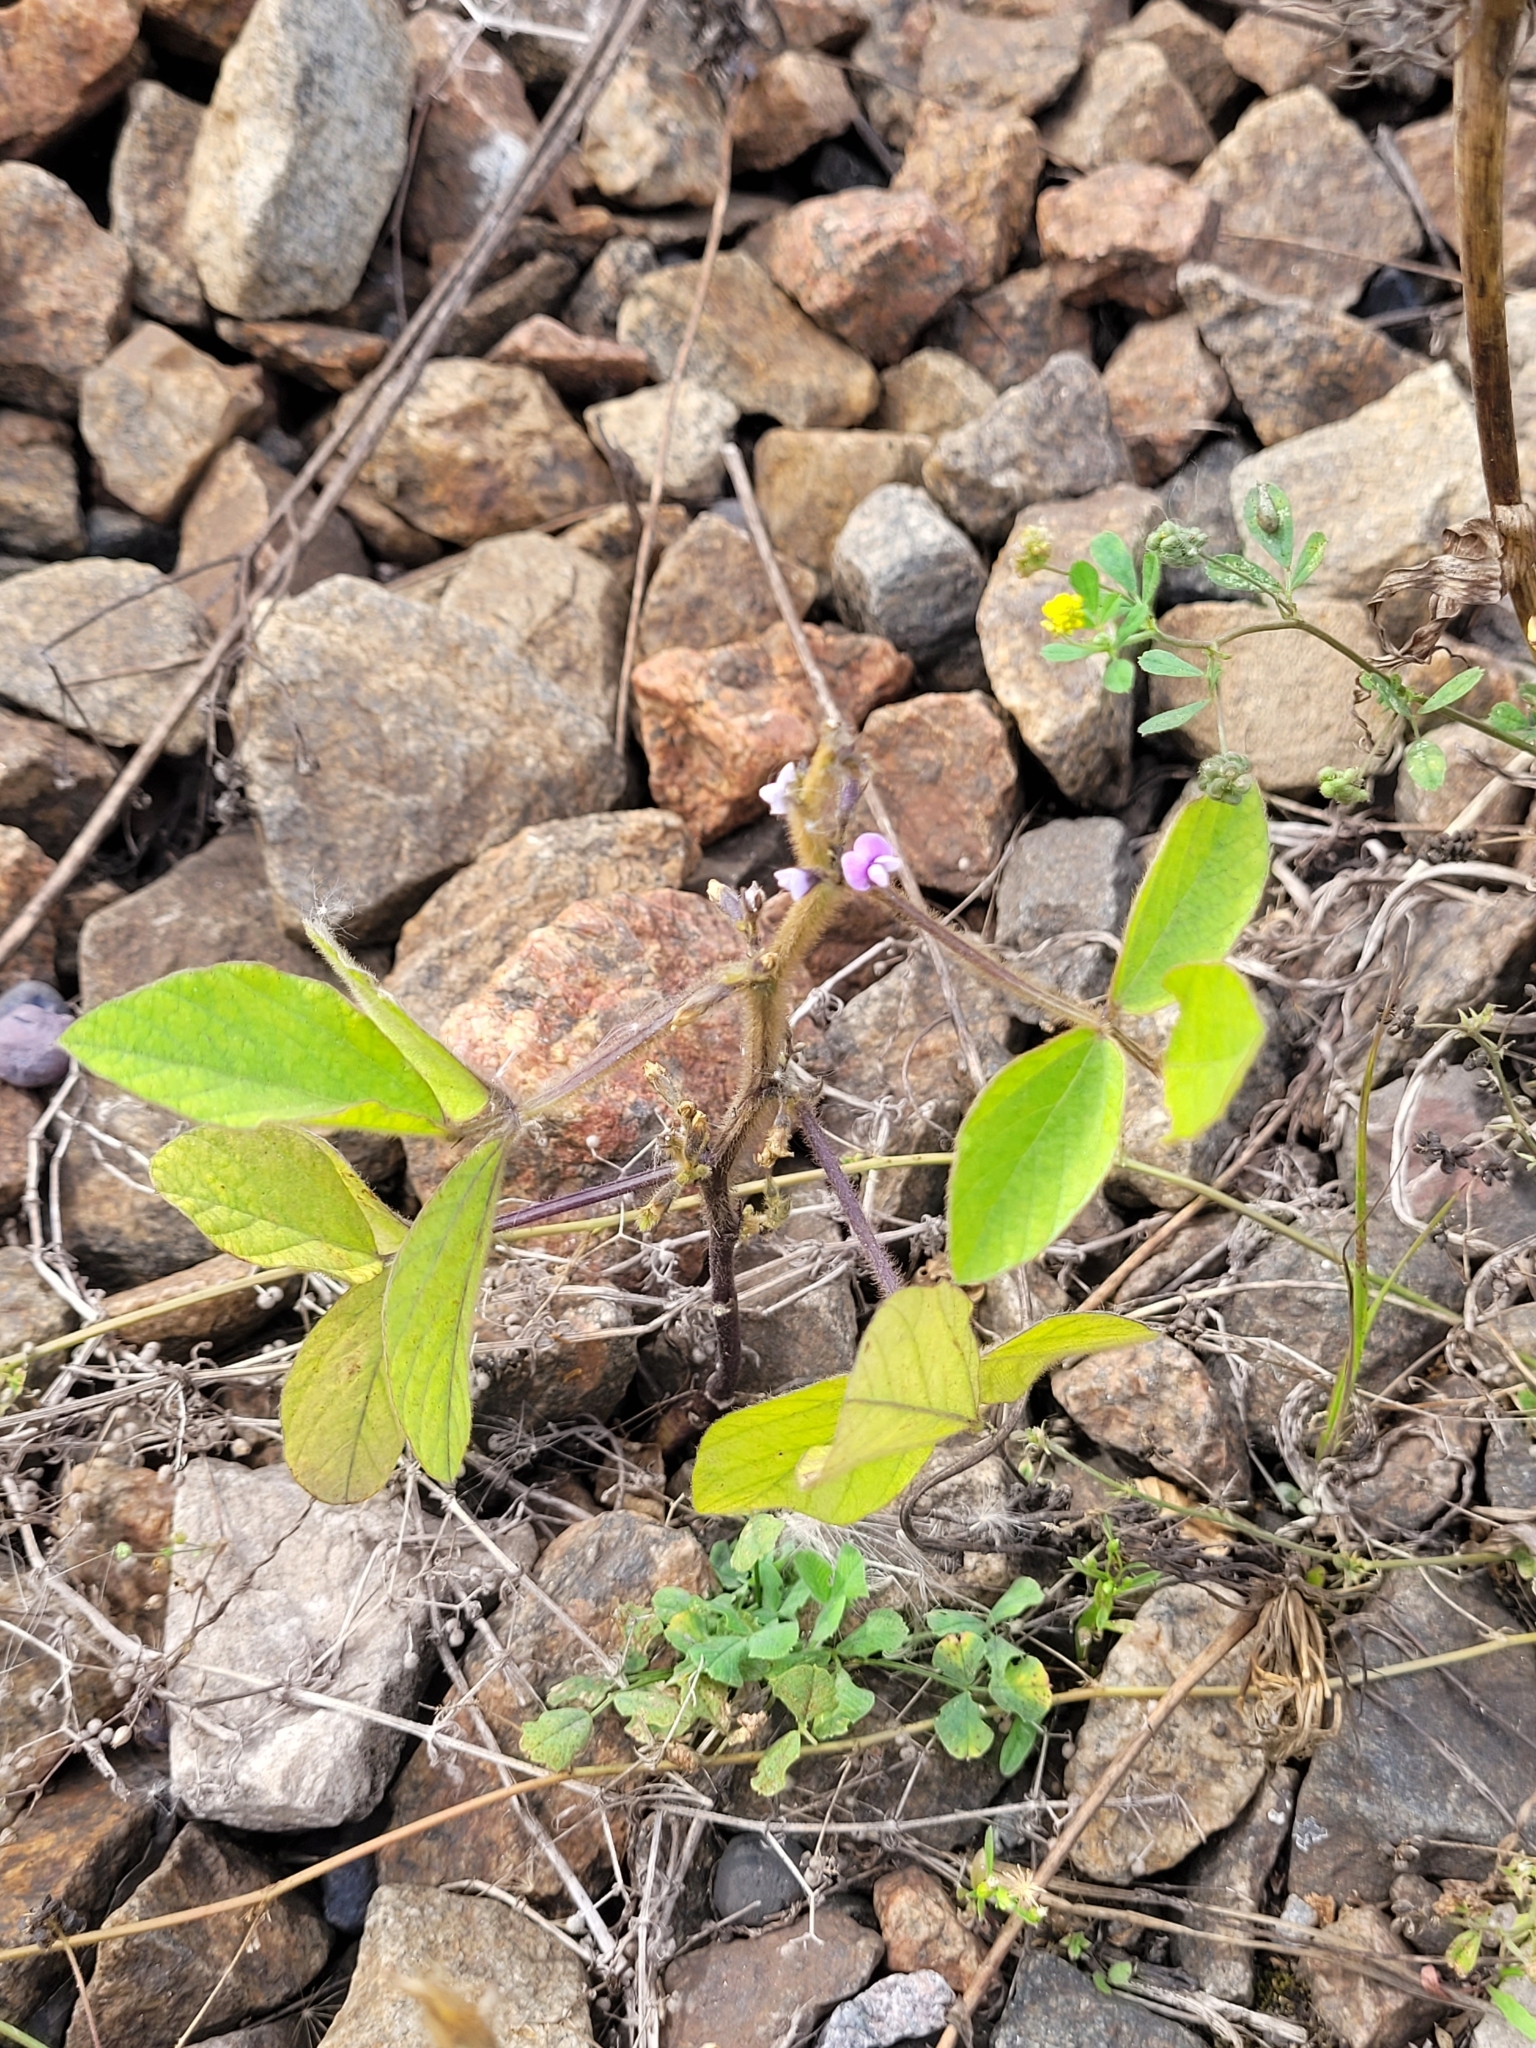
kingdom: Plantae
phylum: Tracheophyta
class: Magnoliopsida
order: Fabales
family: Fabaceae
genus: Glycine
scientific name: Glycine max
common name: Soya-bean
